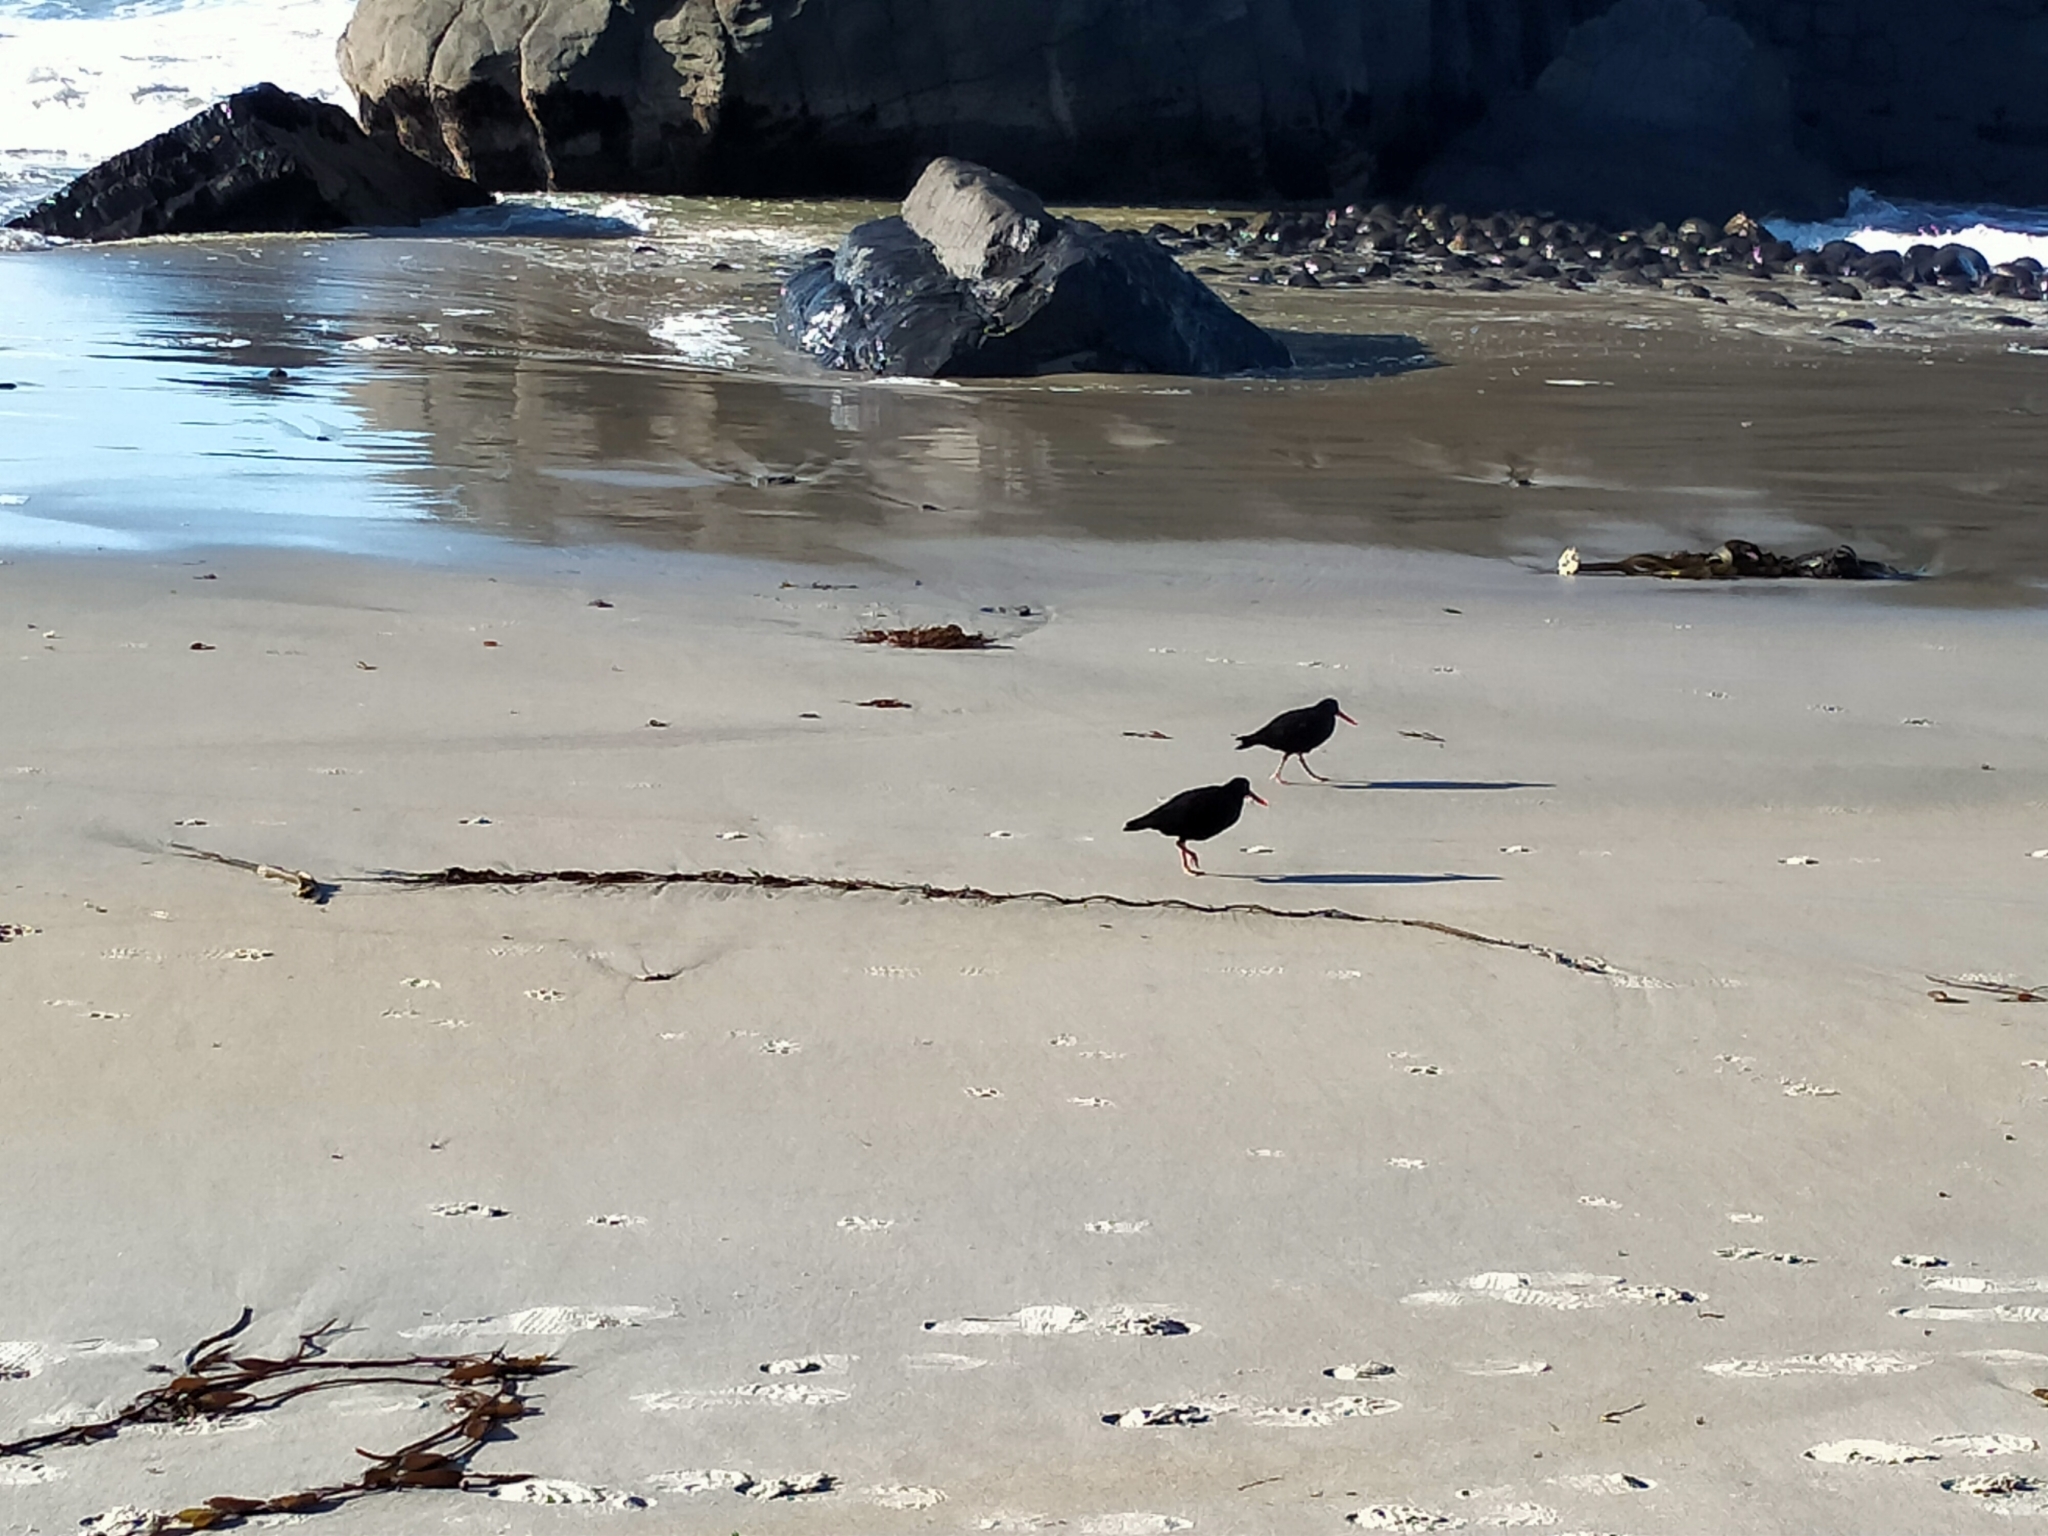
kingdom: Animalia
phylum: Chordata
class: Aves
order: Charadriiformes
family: Haematopodidae
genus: Haematopus
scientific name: Haematopus unicolor
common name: Variable oystercatcher
